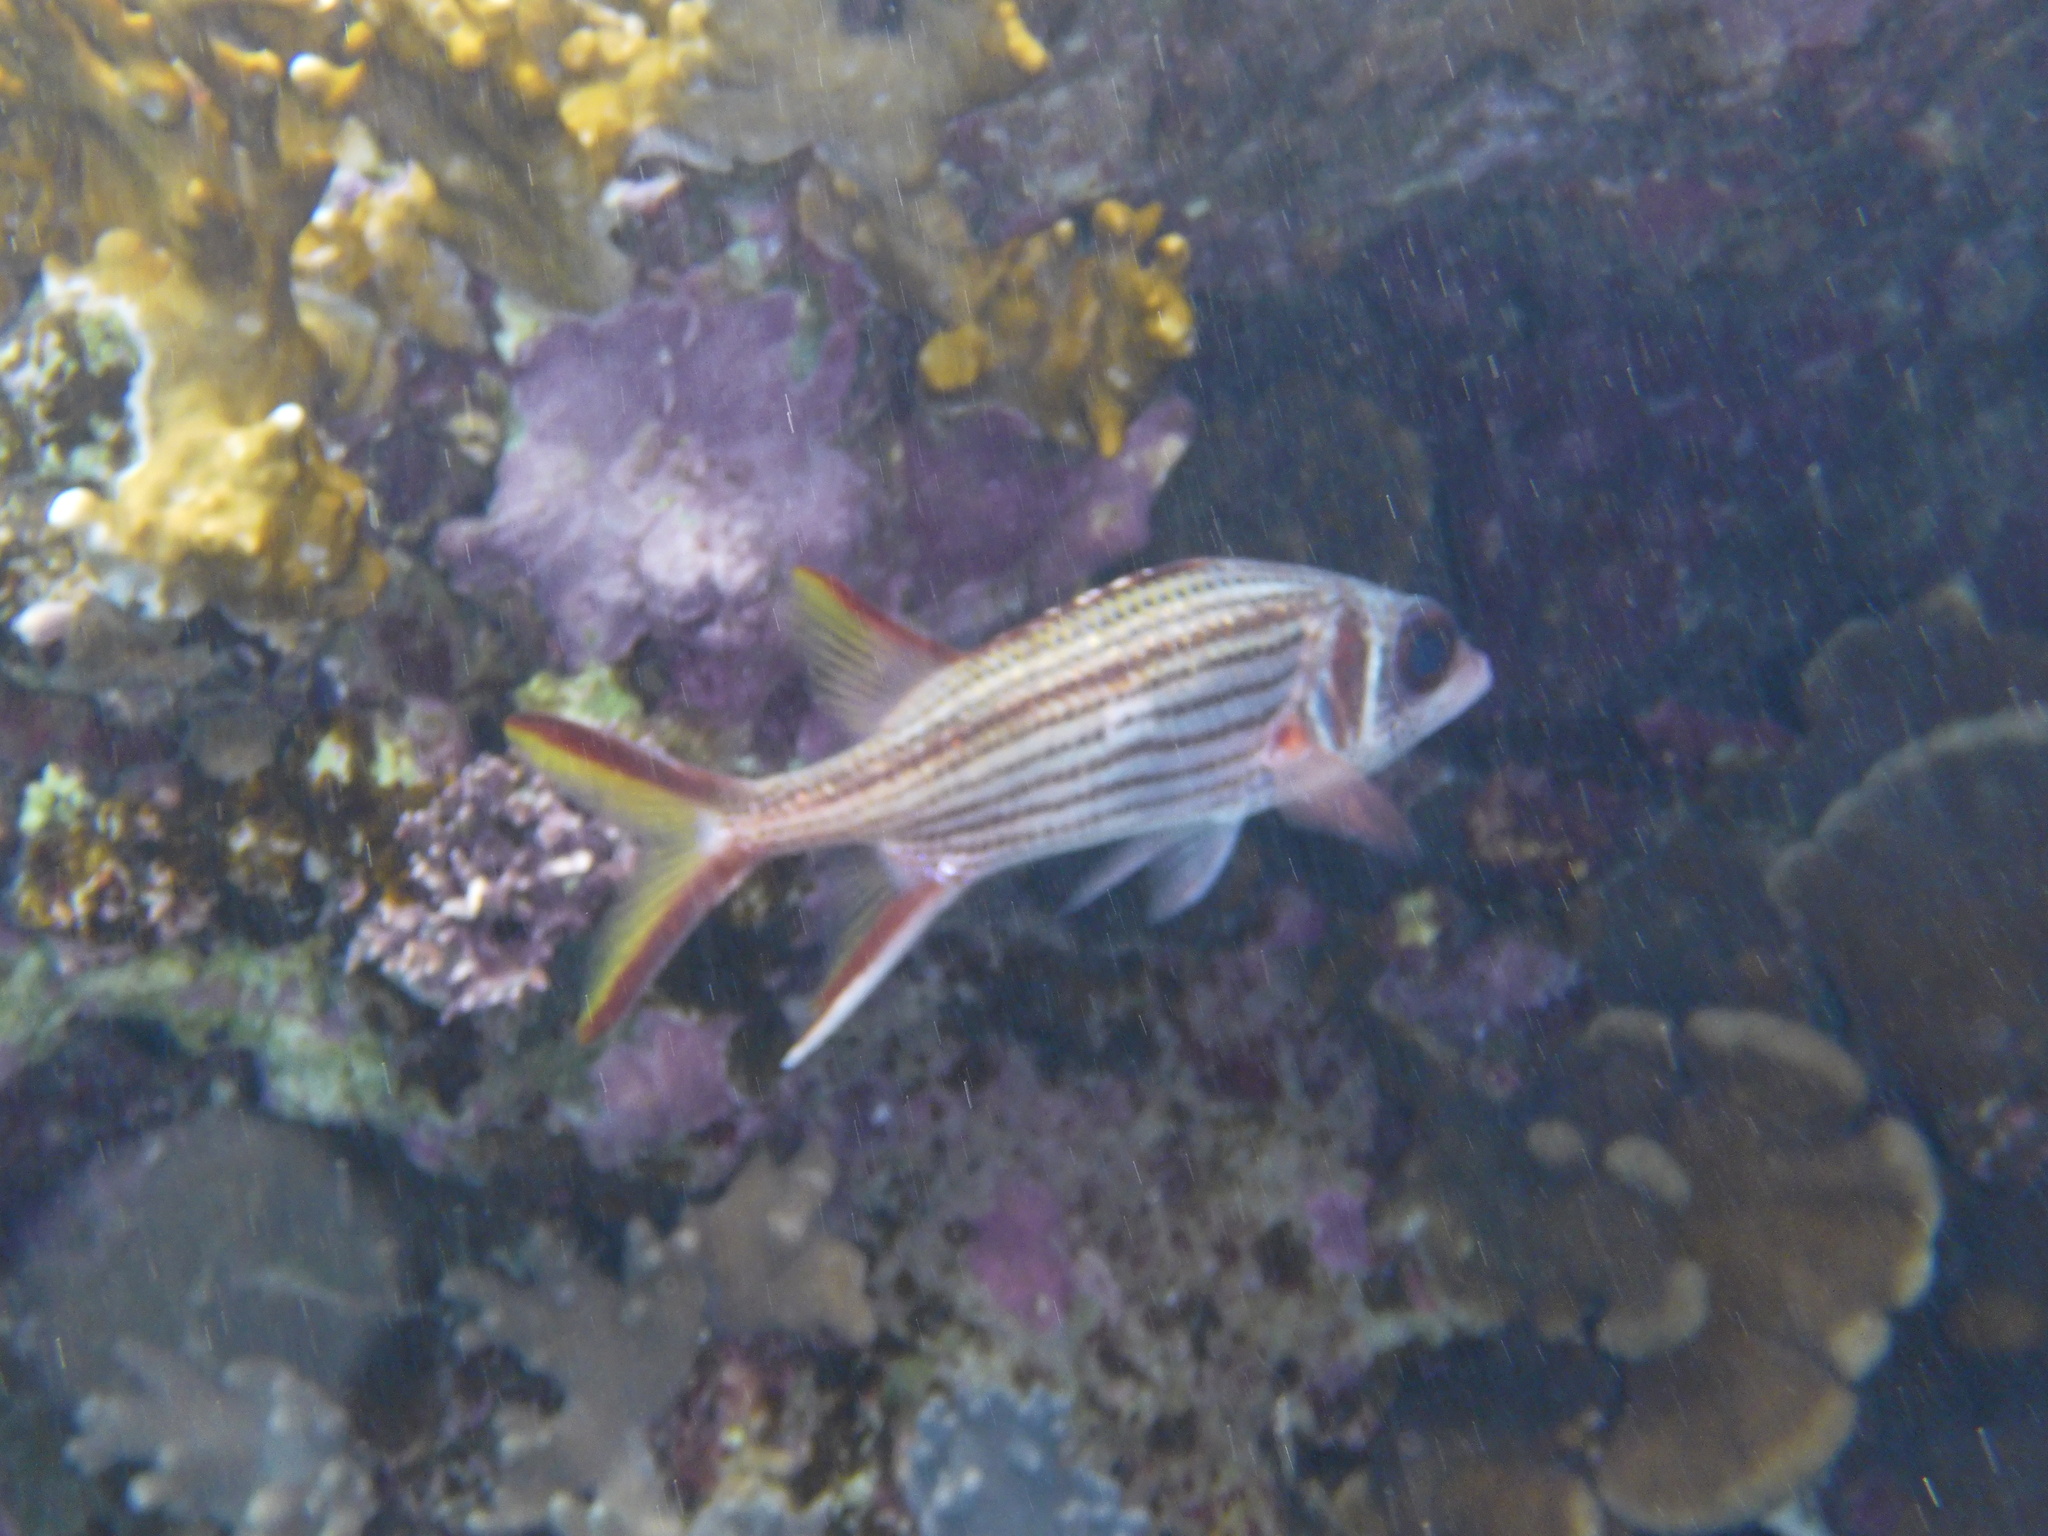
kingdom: Animalia
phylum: Chordata
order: Beryciformes
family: Holocentridae
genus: Neoniphon
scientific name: Neoniphon sammara
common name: Sammara squirrelfish
